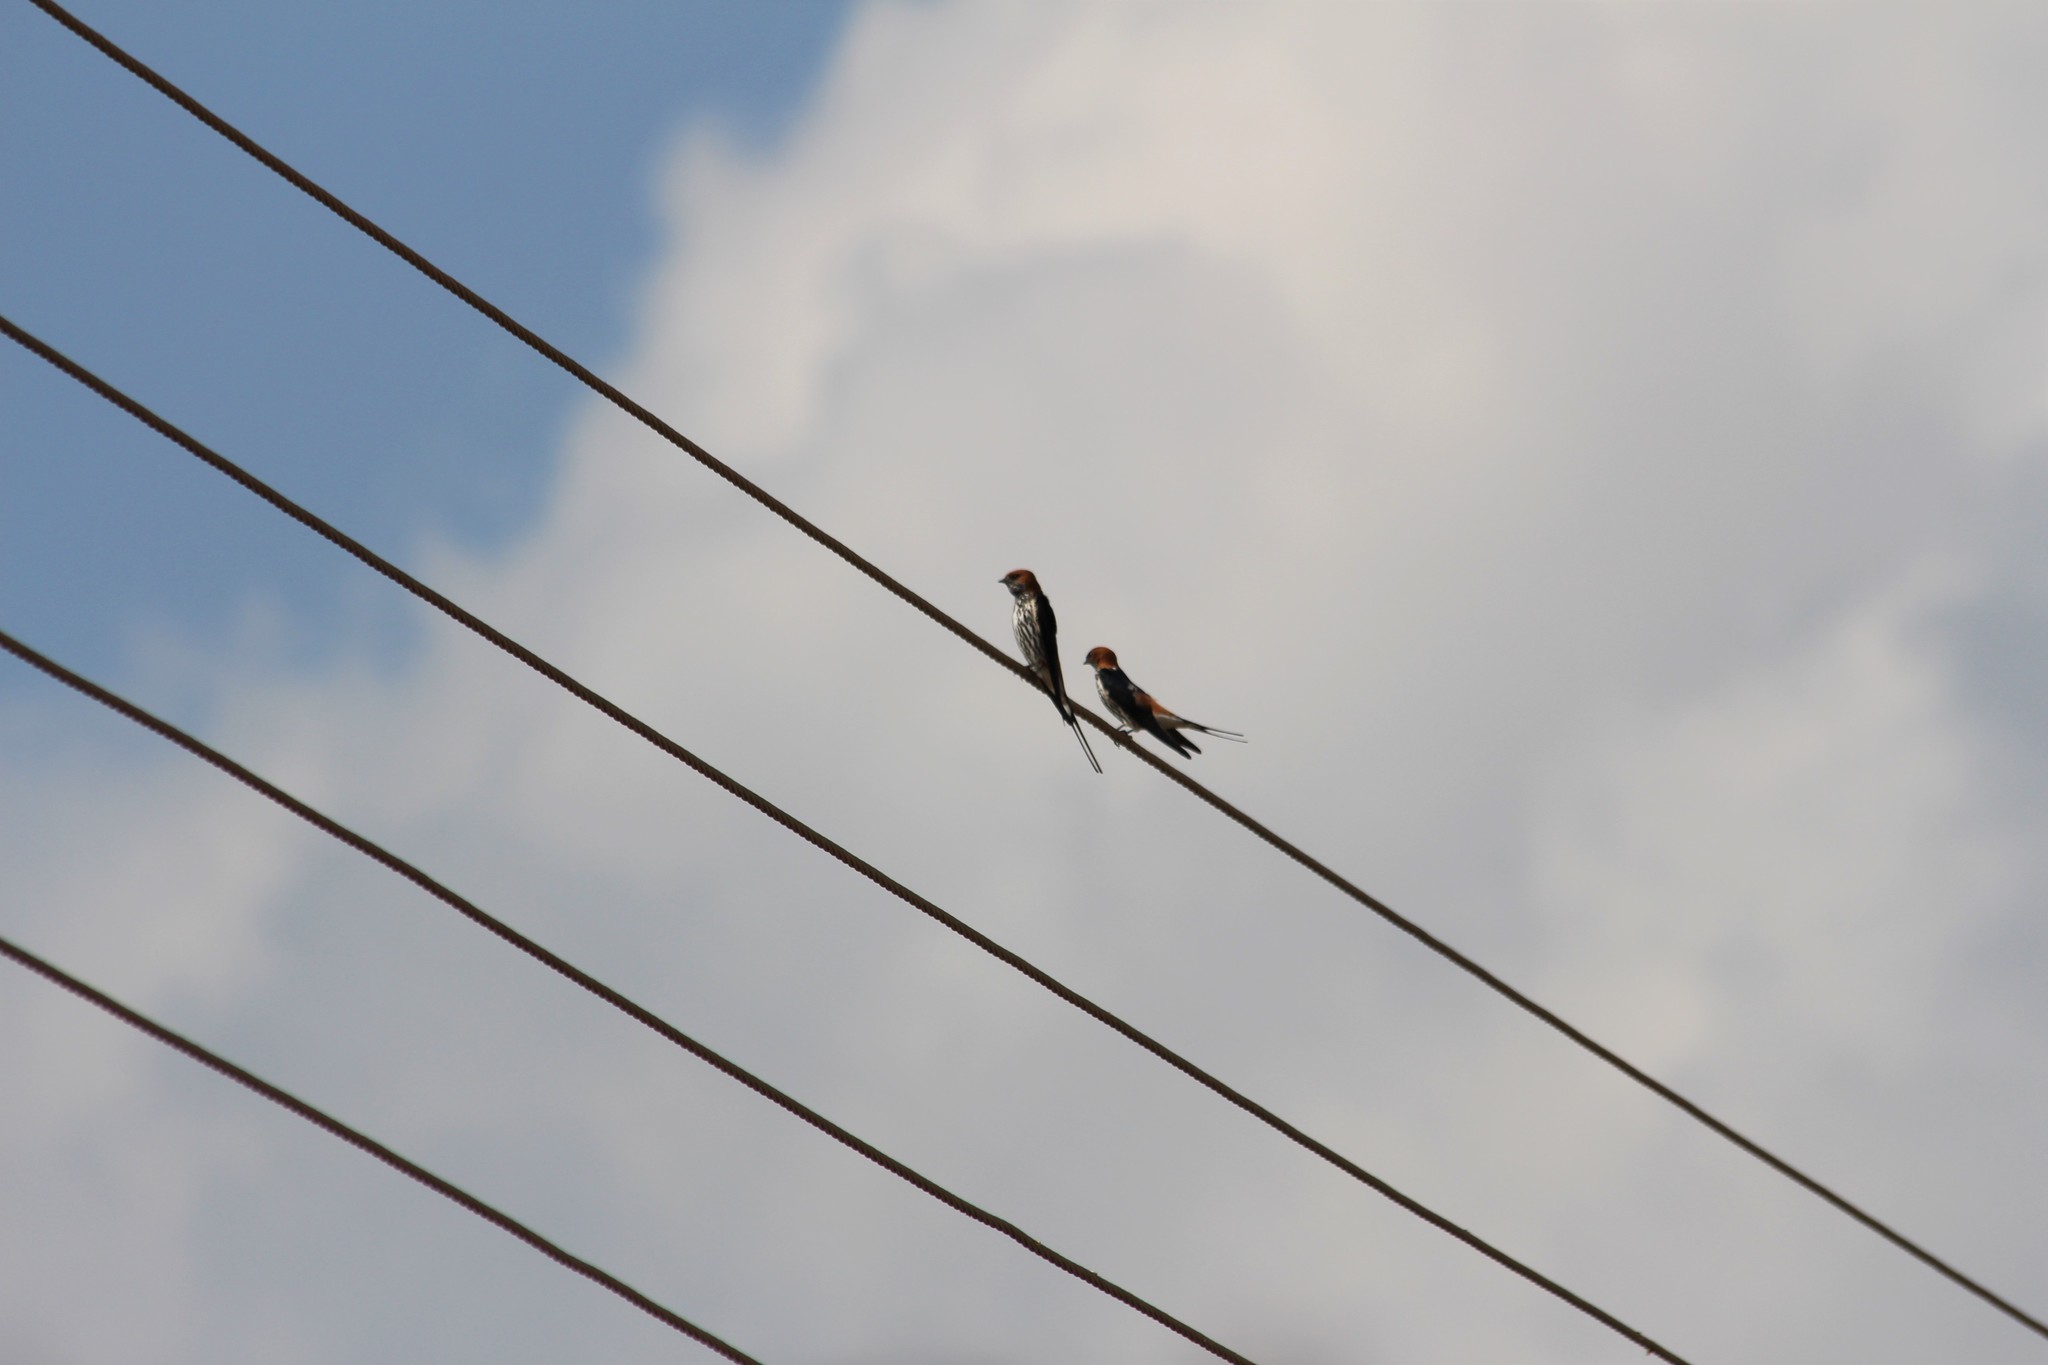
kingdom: Animalia
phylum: Chordata
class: Aves
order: Passeriformes
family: Hirundinidae
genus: Cecropis
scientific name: Cecropis abyssinica
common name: Lesser striped-swallow
